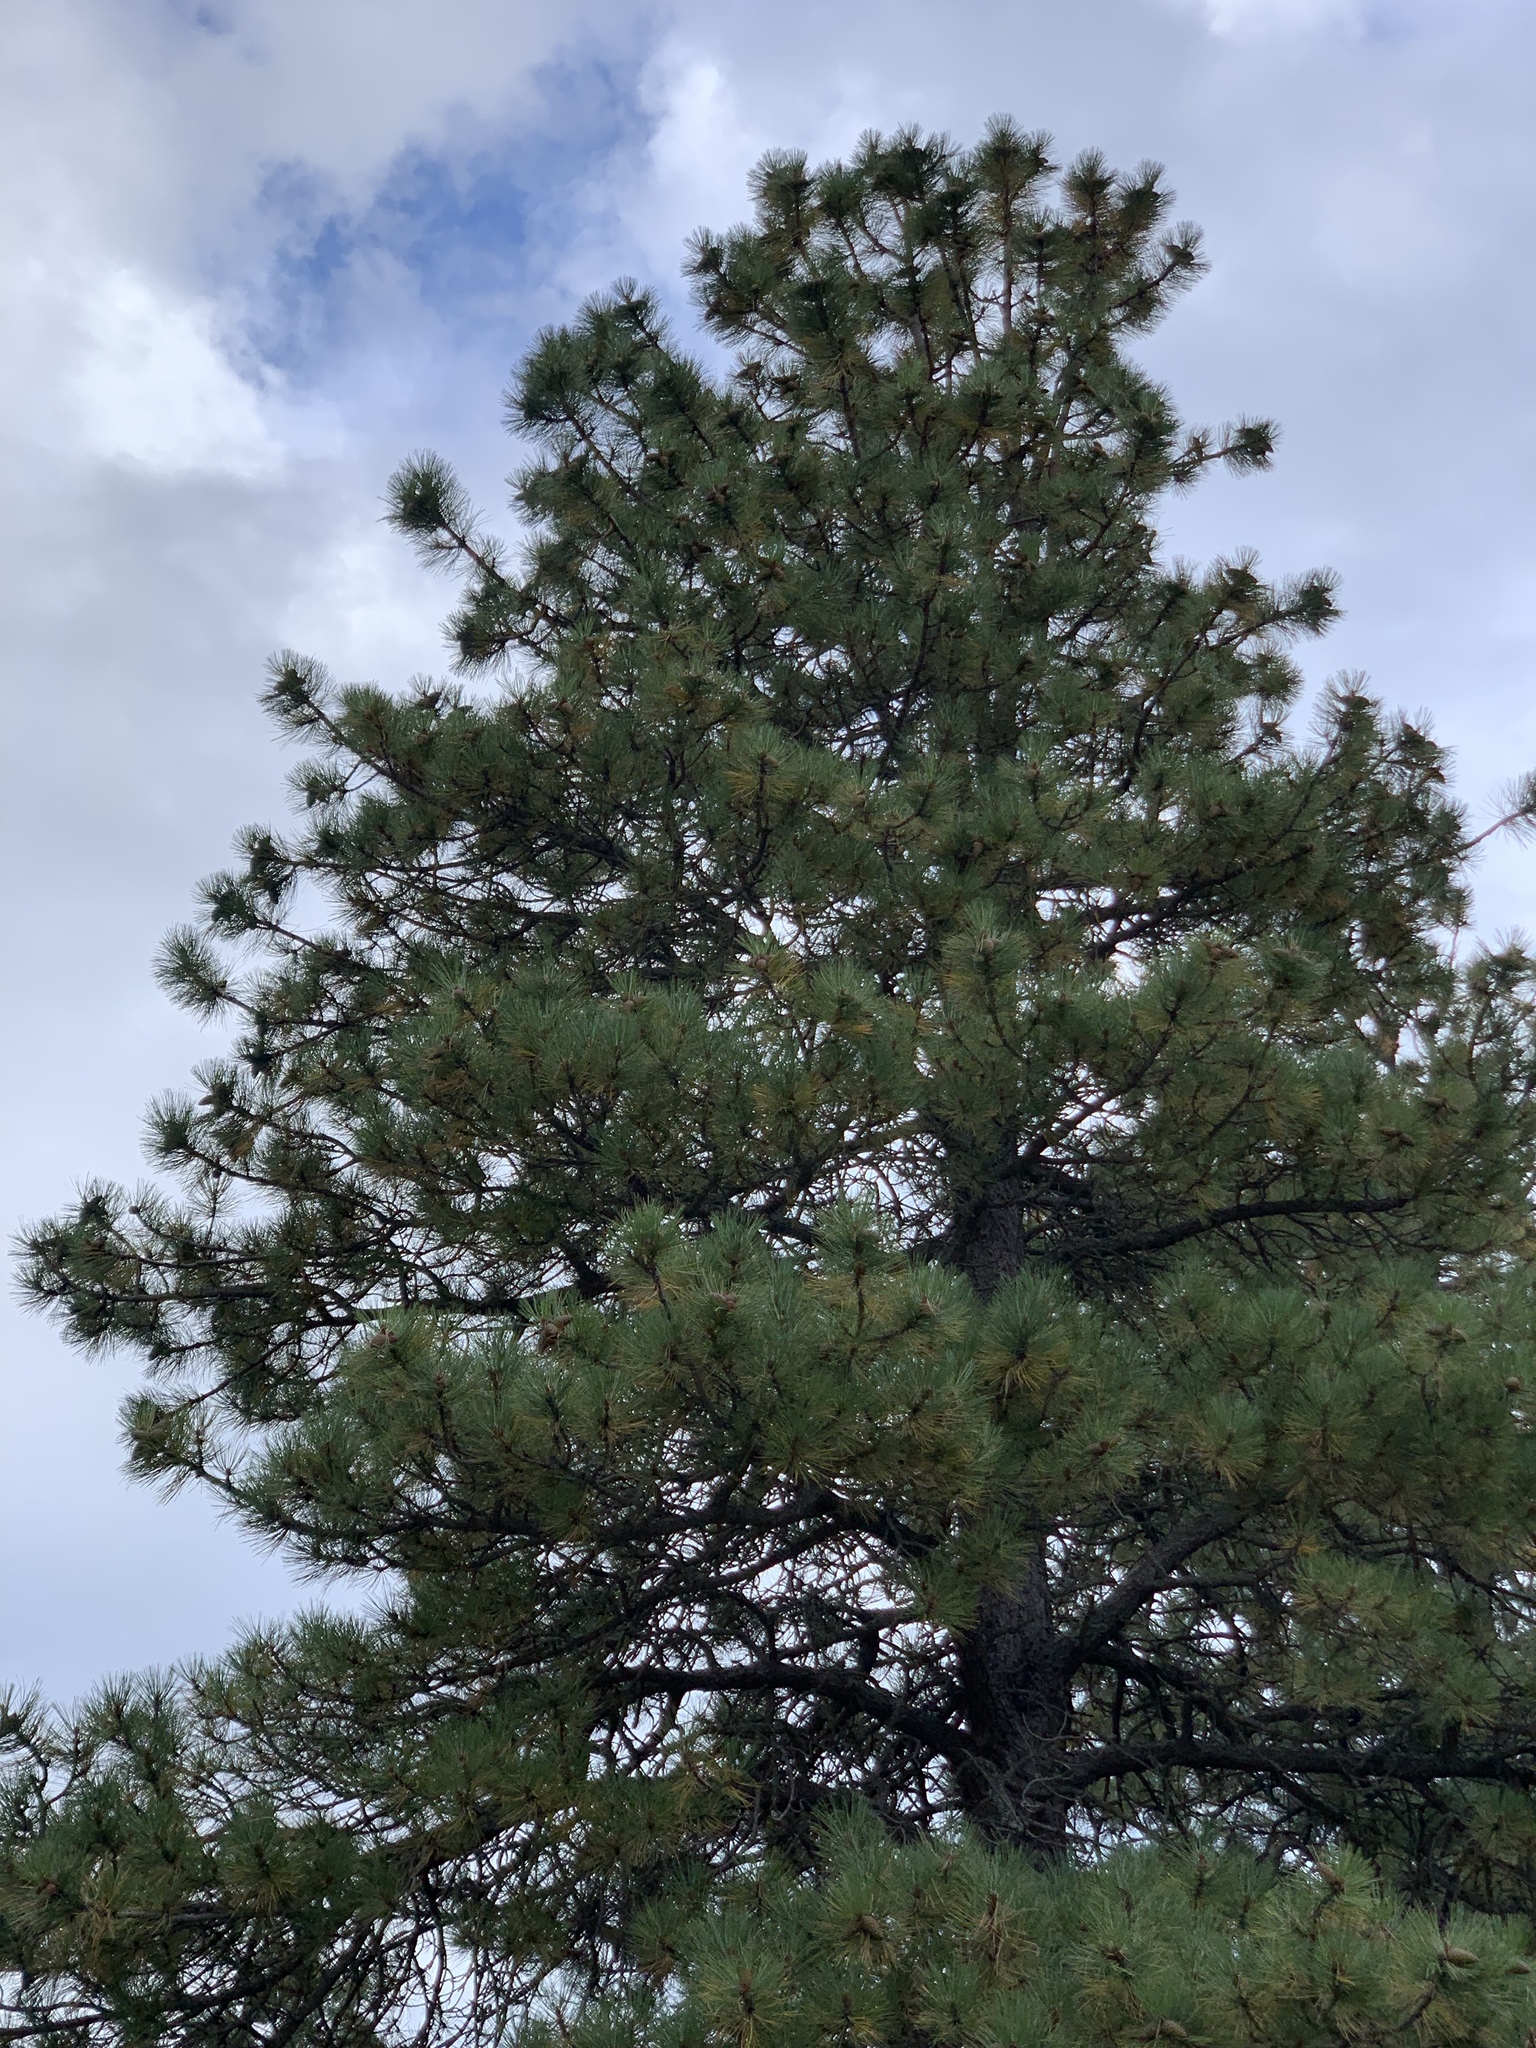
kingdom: Plantae
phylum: Tracheophyta
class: Pinopsida
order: Pinales
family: Pinaceae
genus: Pinus
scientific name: Pinus ponderosa
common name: Western yellow-pine
